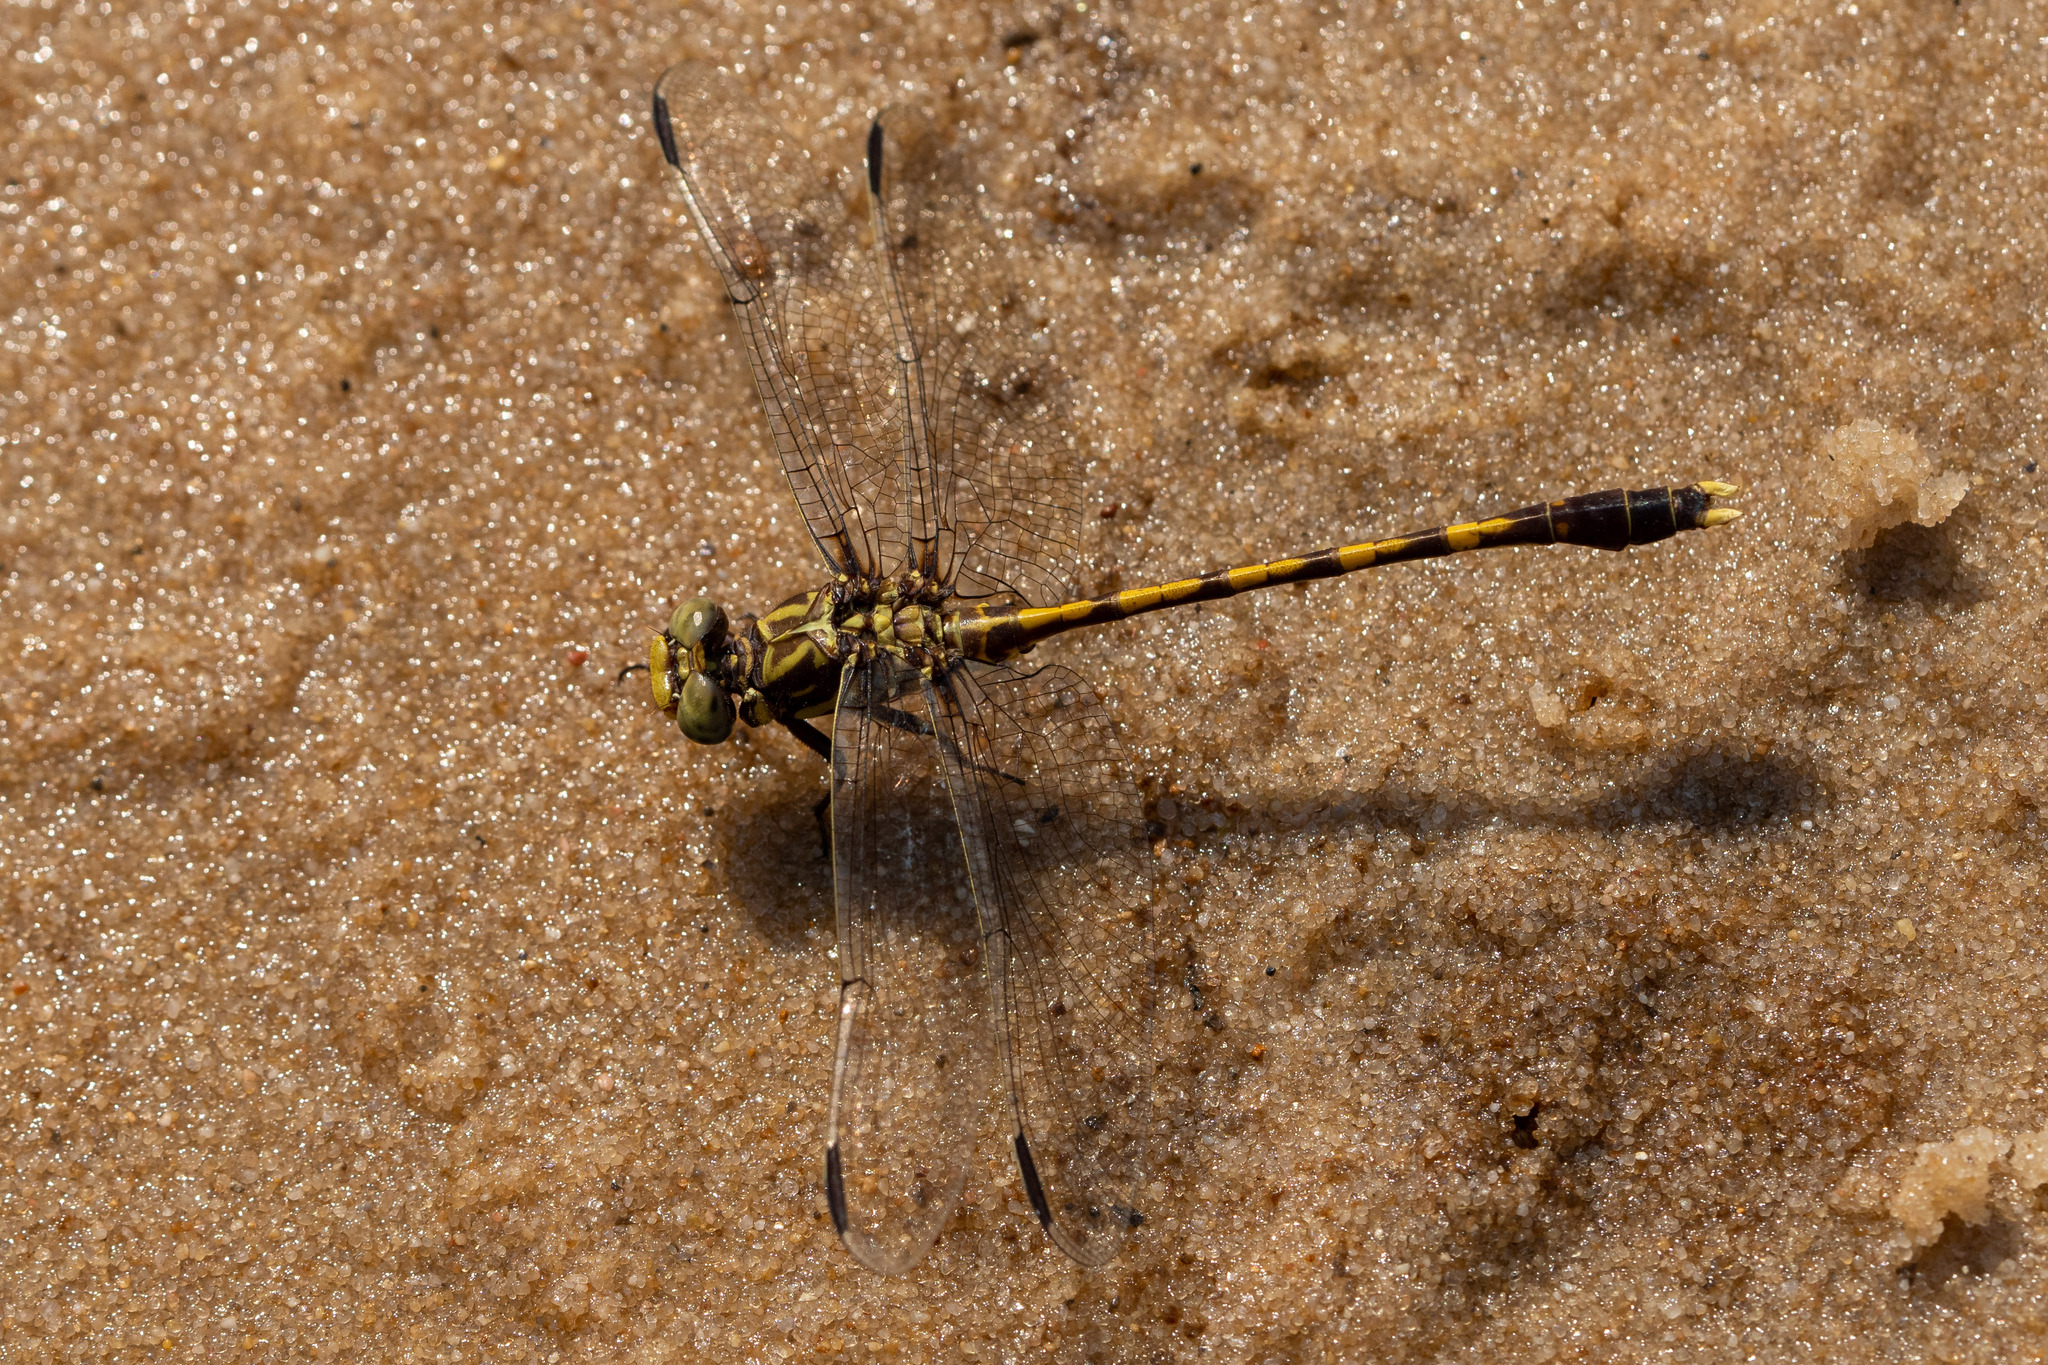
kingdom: Animalia
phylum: Arthropoda
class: Insecta
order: Odonata
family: Gomphidae
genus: Progomphus
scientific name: Progomphus obscurus
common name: Common sanddragon
